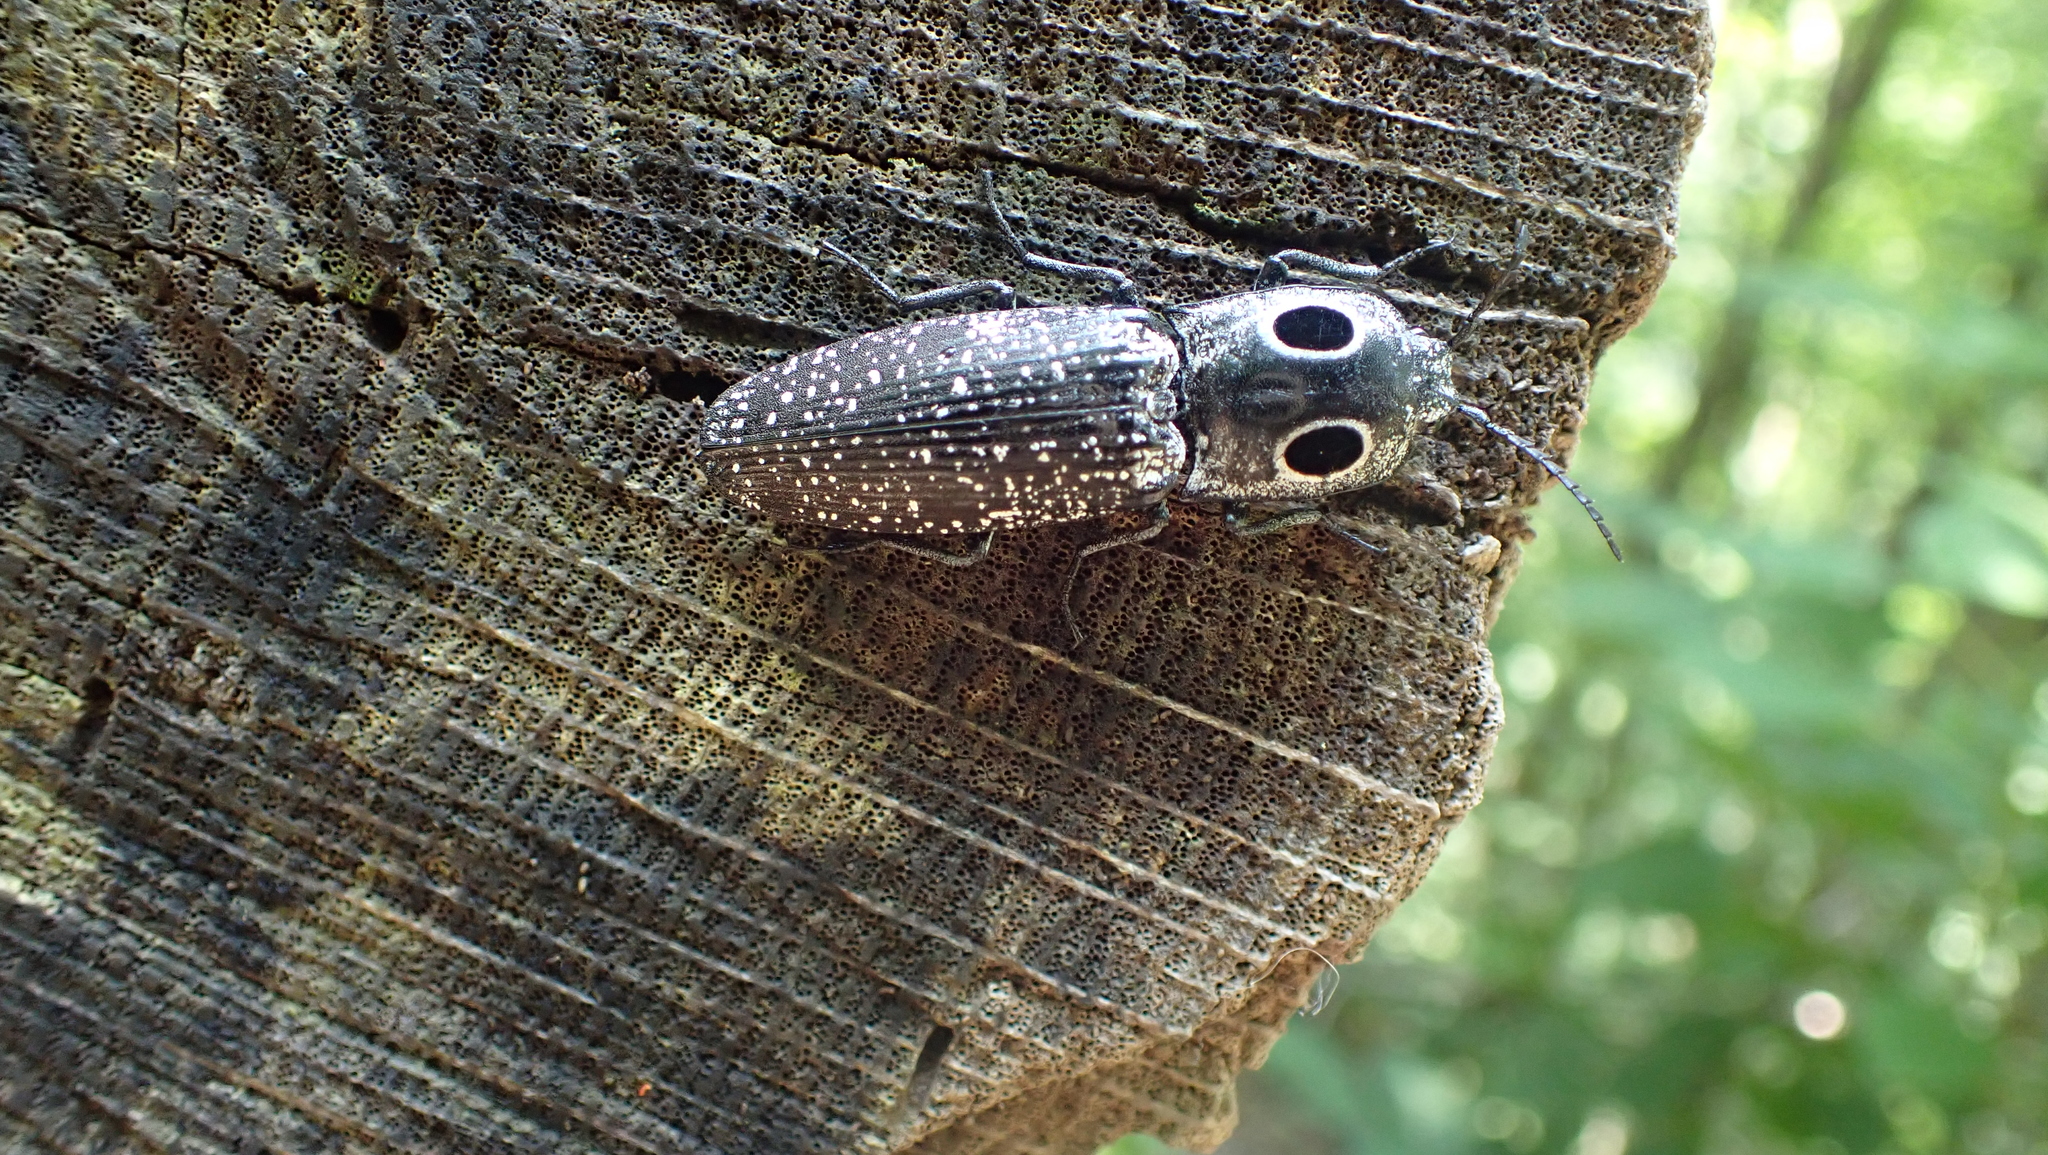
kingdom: Animalia
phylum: Arthropoda
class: Insecta
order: Coleoptera
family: Elateridae
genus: Alaus
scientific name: Alaus oculatus
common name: Eastern eyed click beetle
